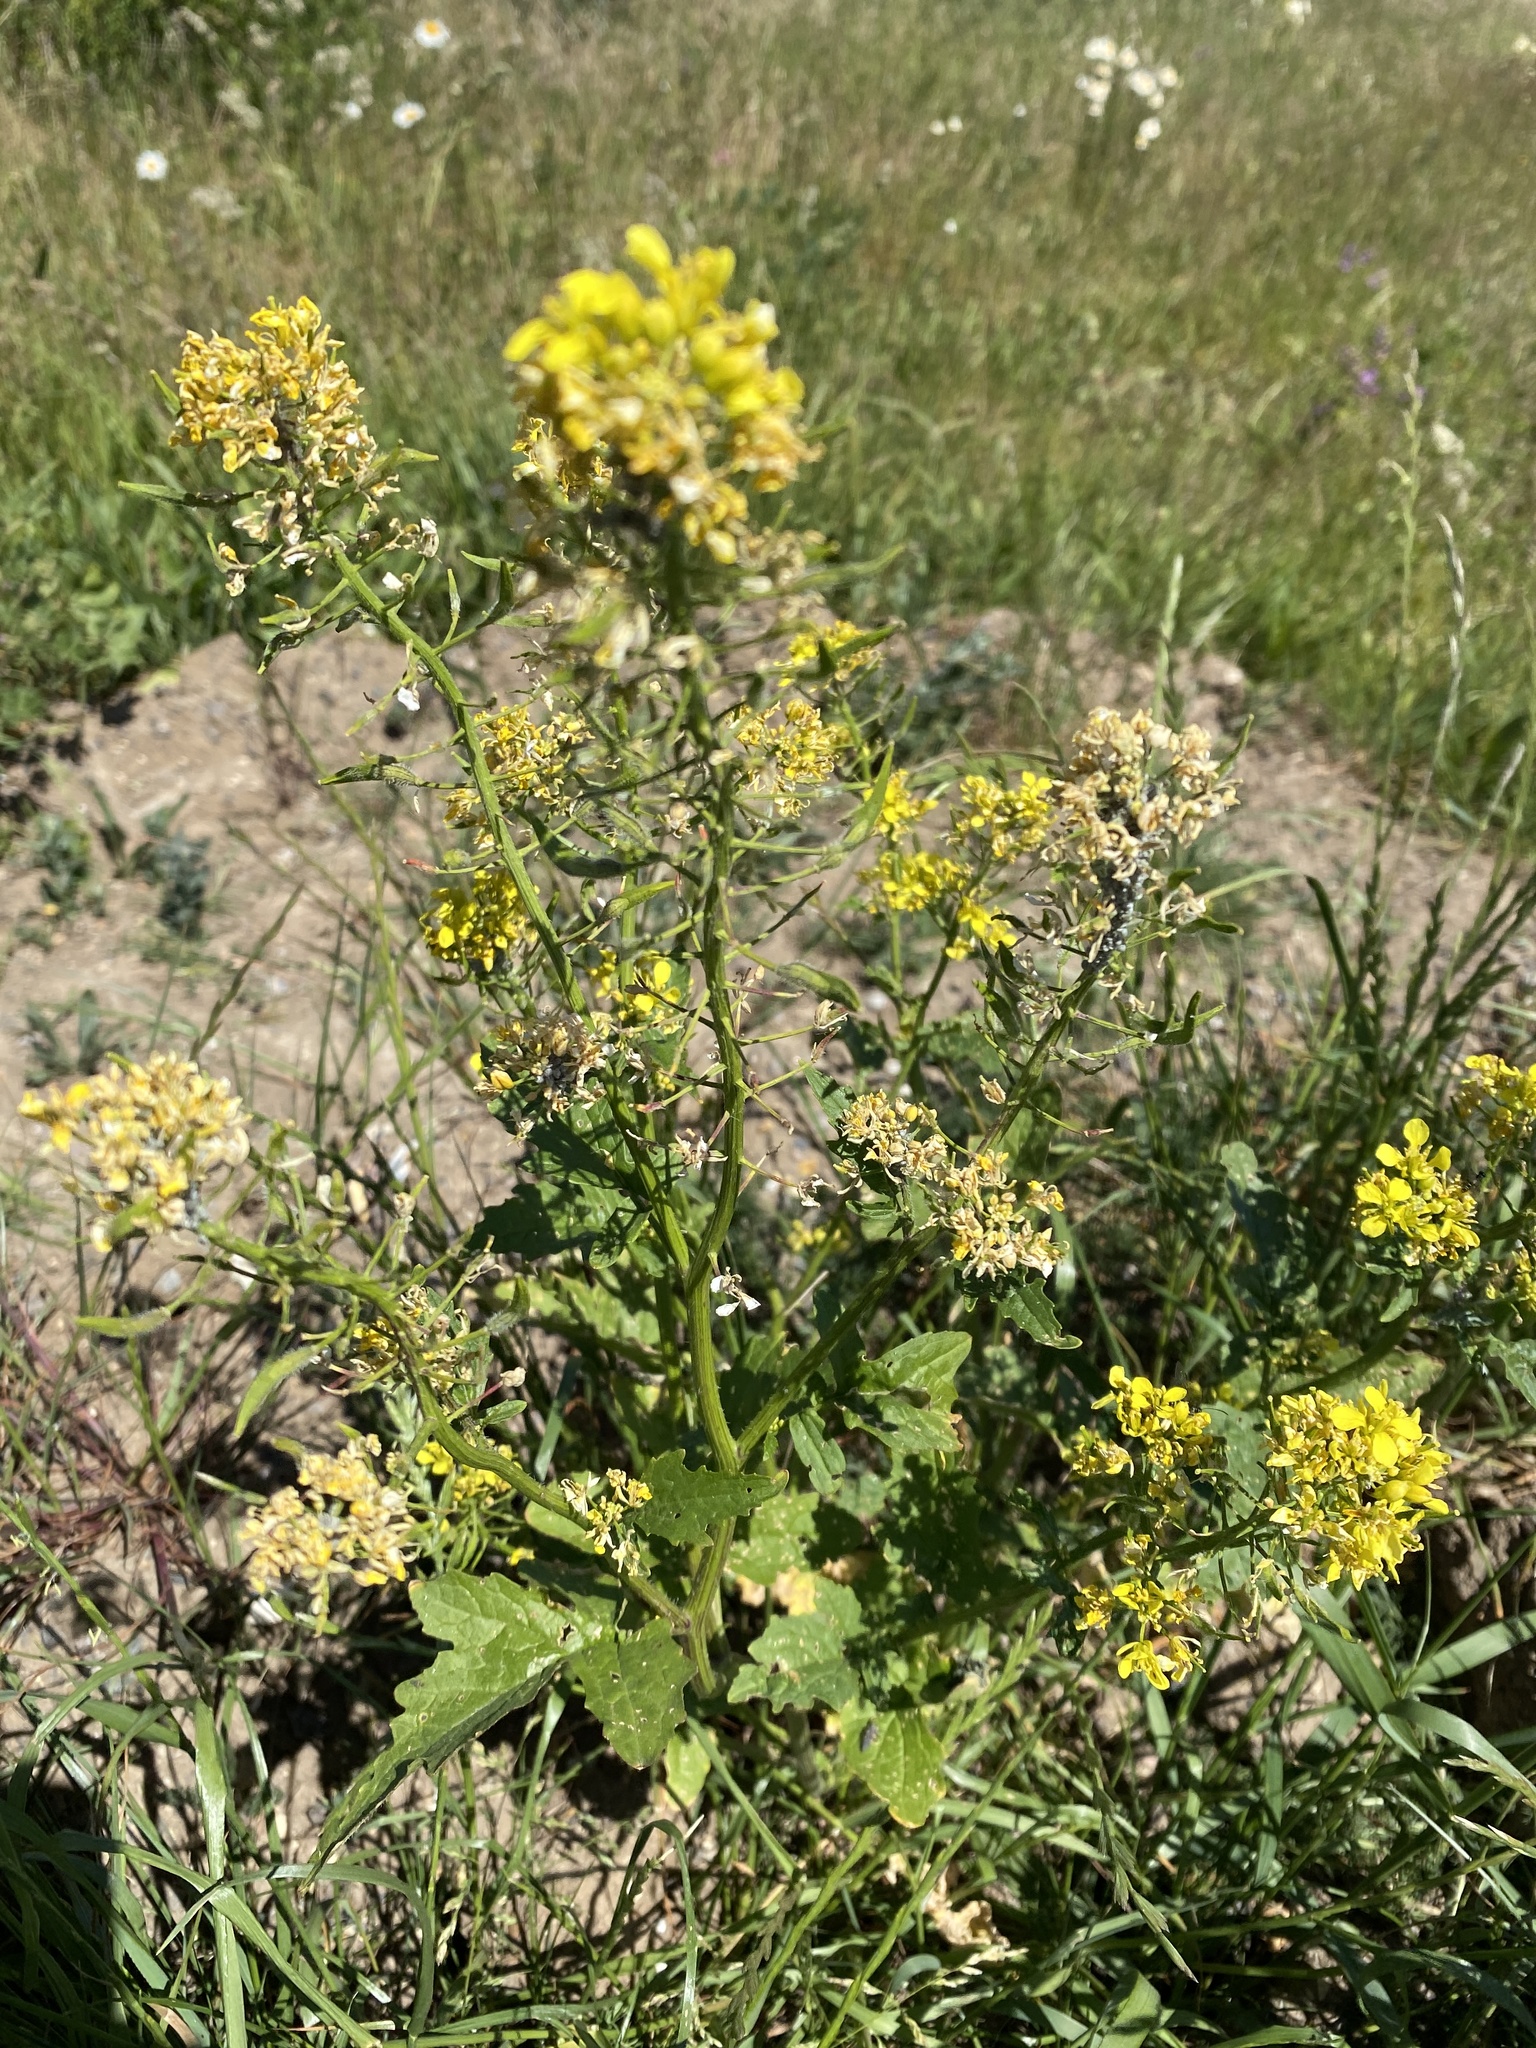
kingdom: Plantae
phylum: Tracheophyta
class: Magnoliopsida
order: Brassicales
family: Brassicaceae
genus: Barbarea
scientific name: Barbarea vulgaris
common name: Cressy-greens
